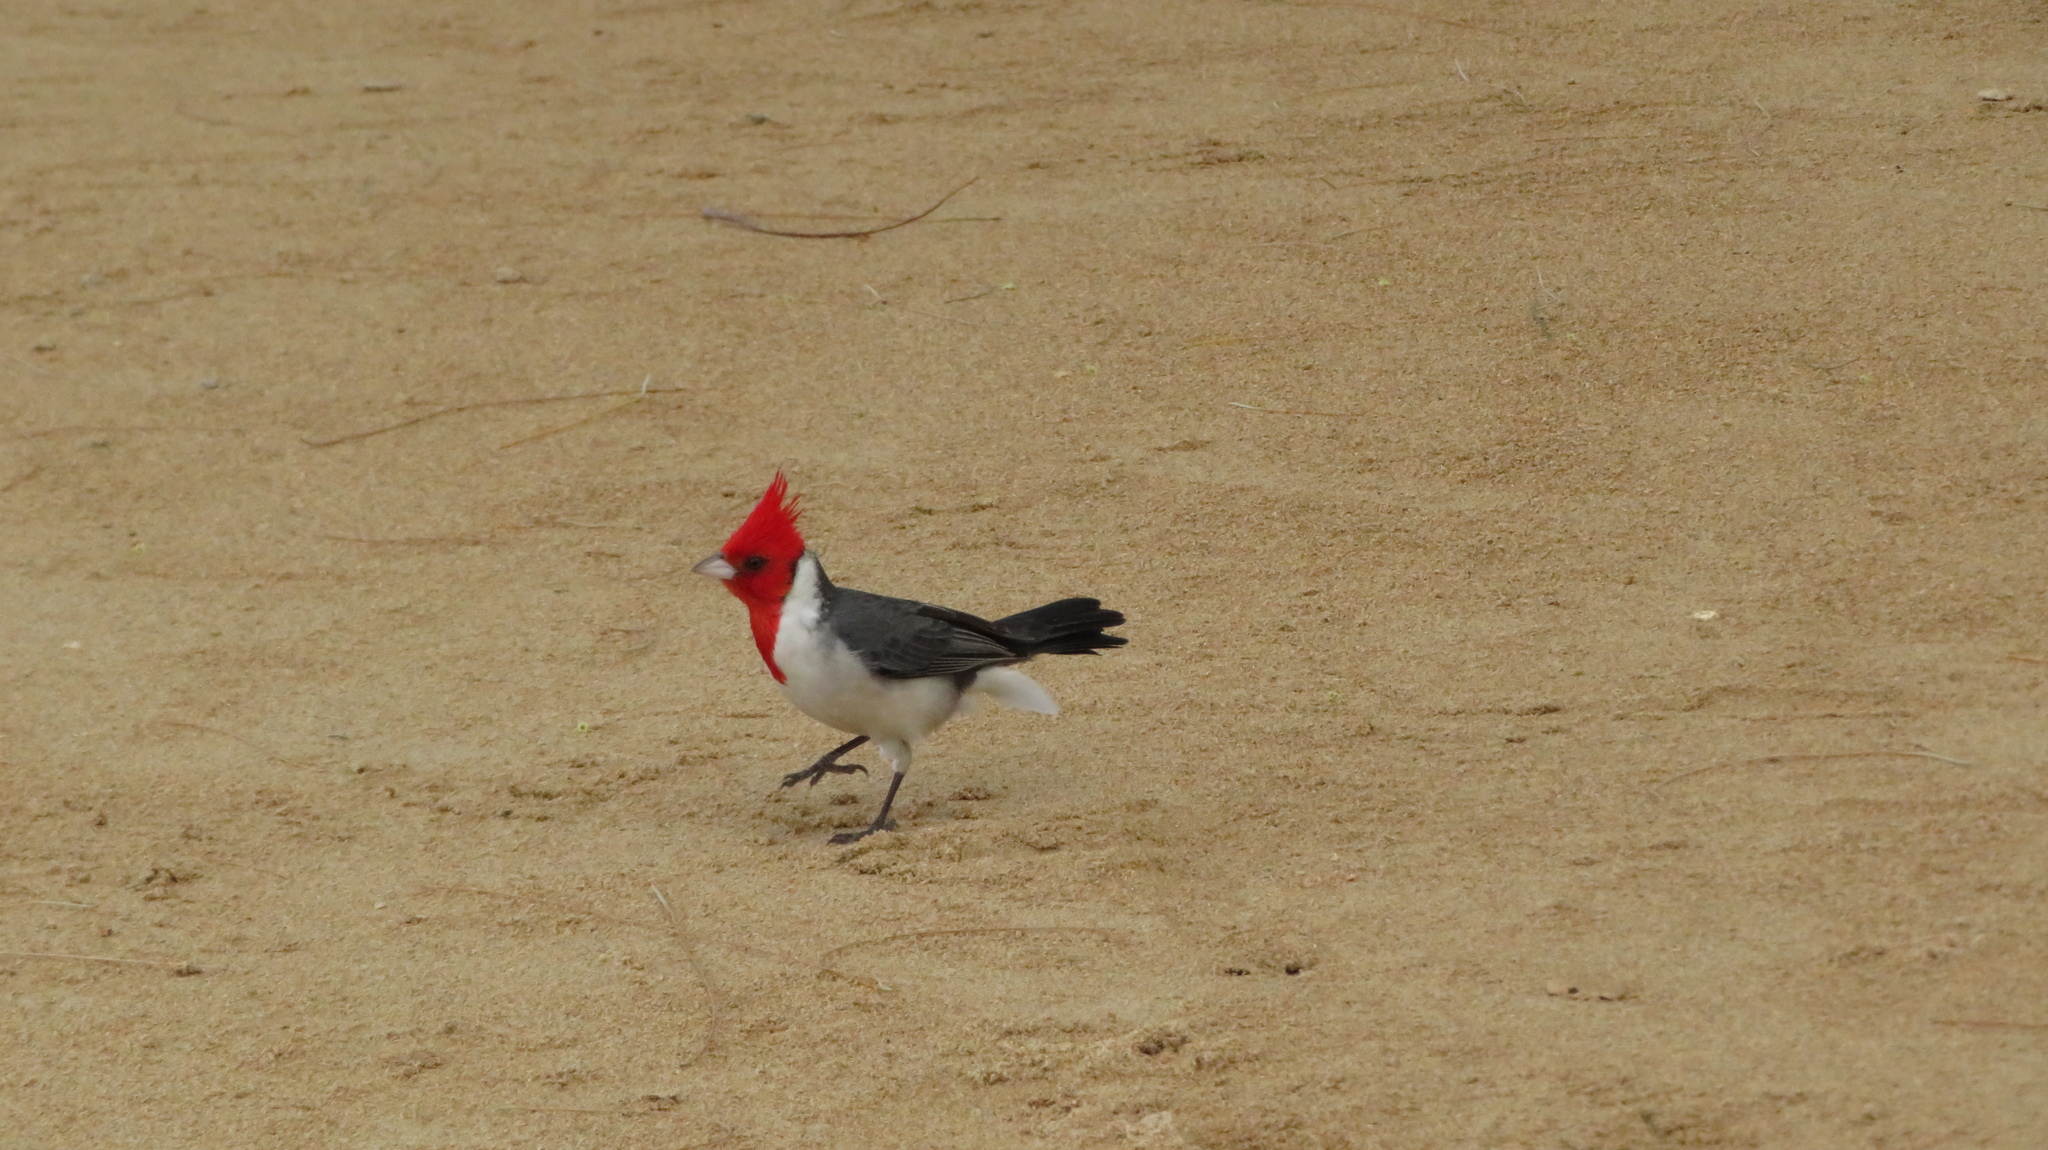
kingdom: Animalia
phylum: Chordata
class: Aves
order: Passeriformes
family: Thraupidae
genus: Paroaria
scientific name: Paroaria coronata
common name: Red-crested cardinal
